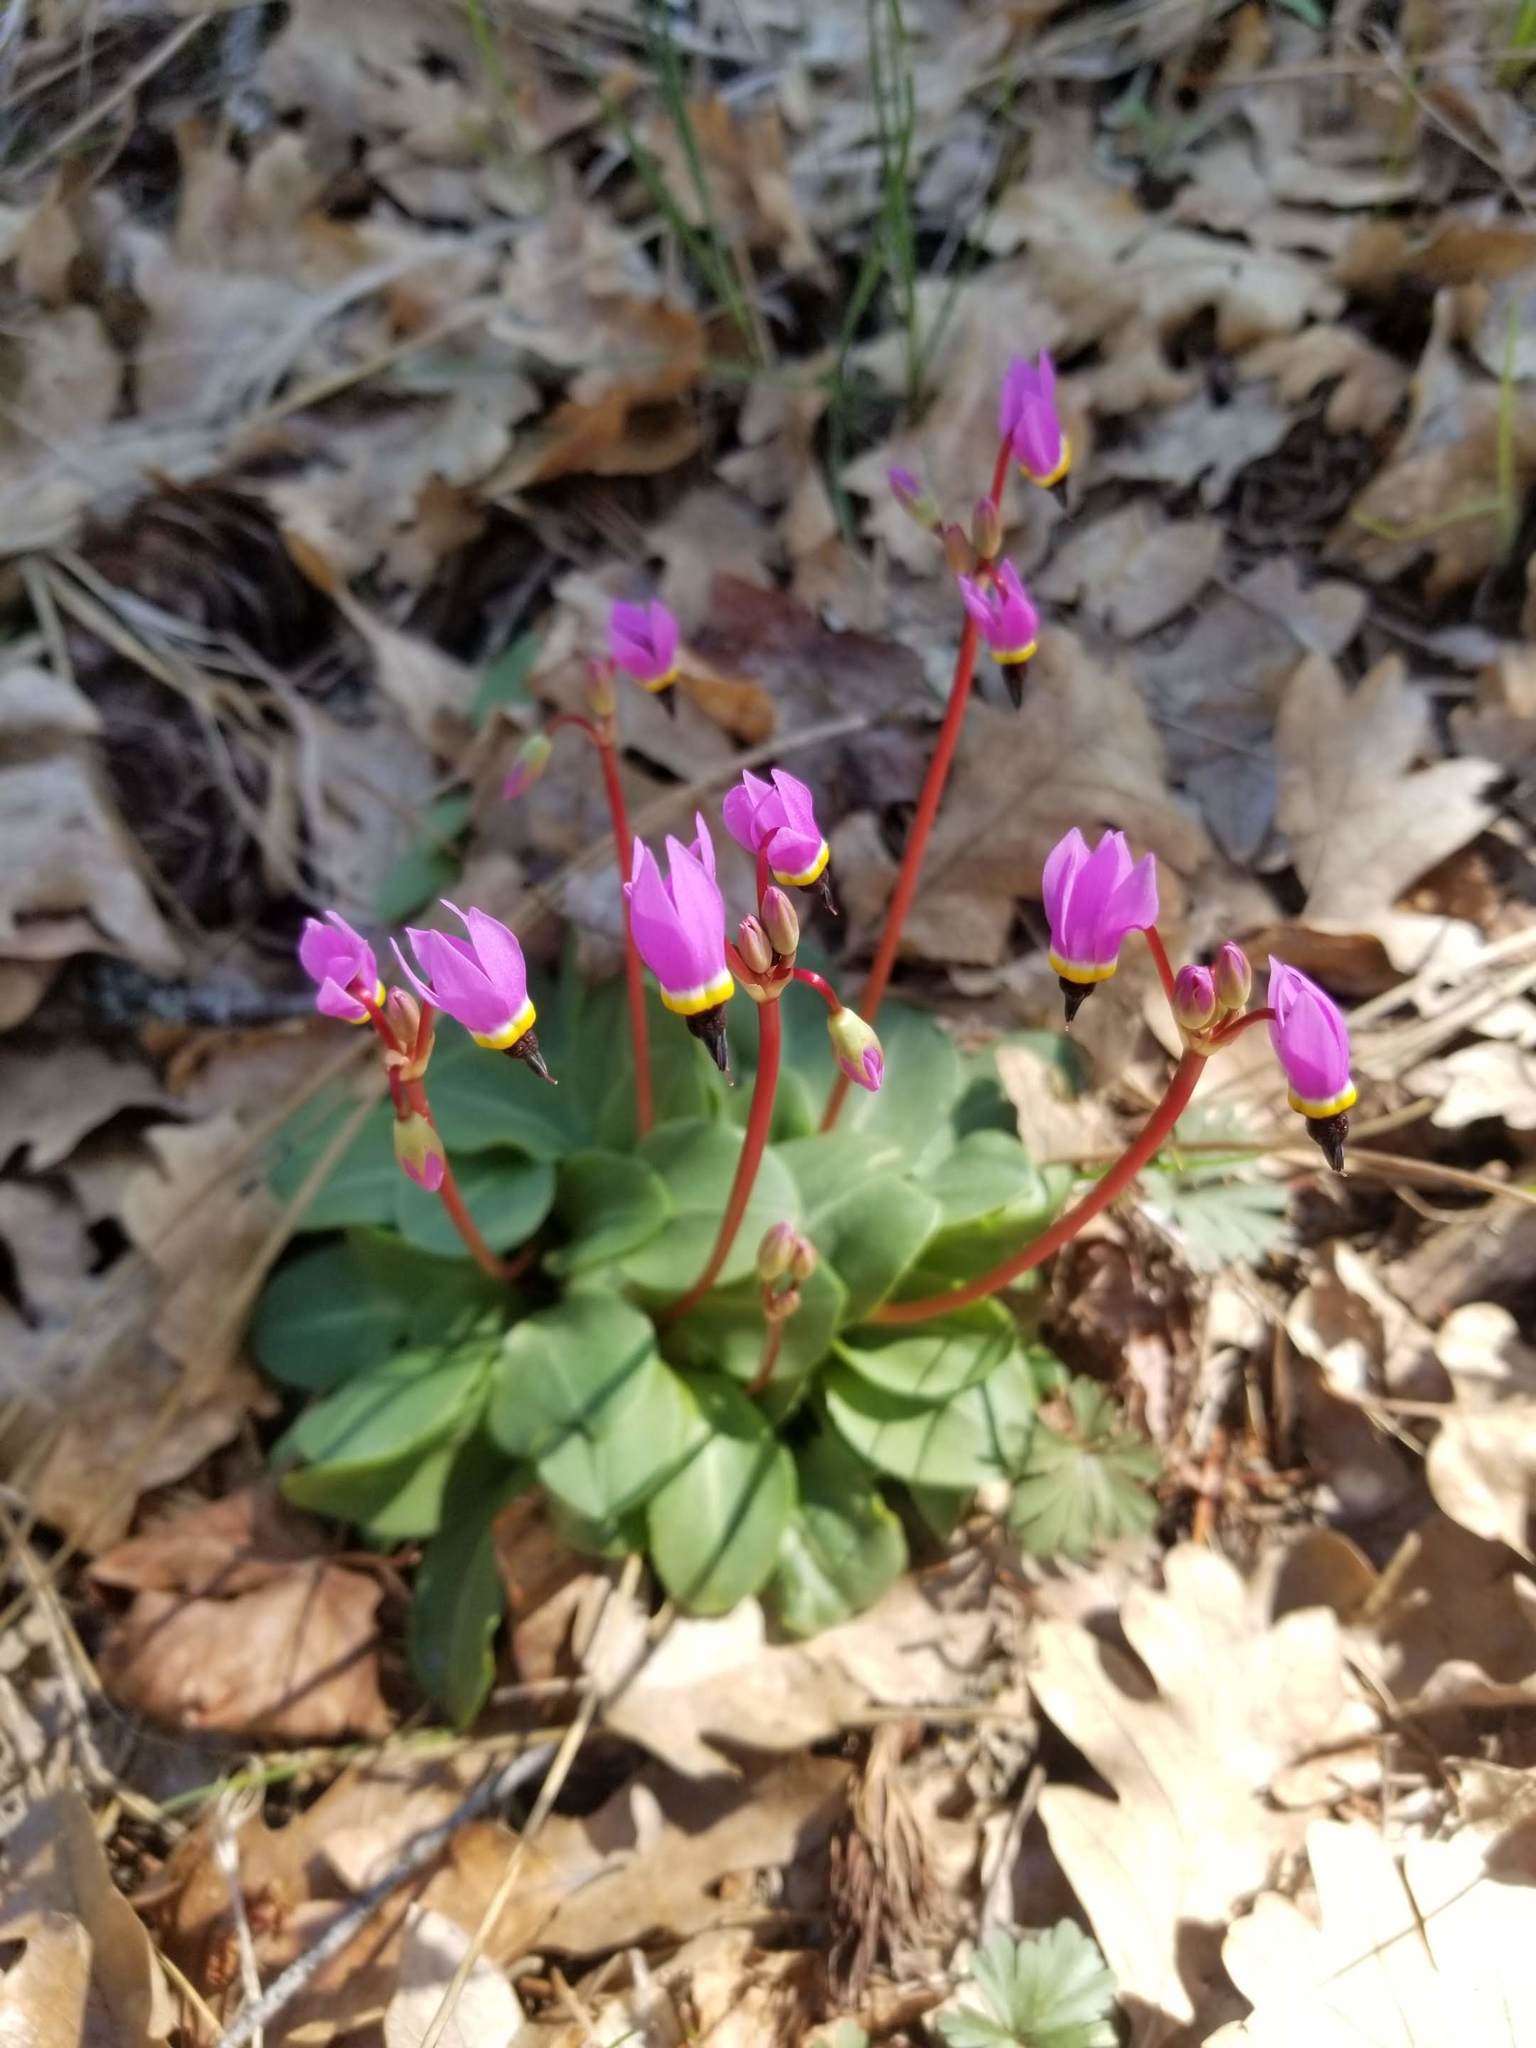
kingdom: Plantae
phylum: Tracheophyta
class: Magnoliopsida
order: Ericales
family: Primulaceae
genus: Dodecatheon
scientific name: Dodecatheon hendersonii
